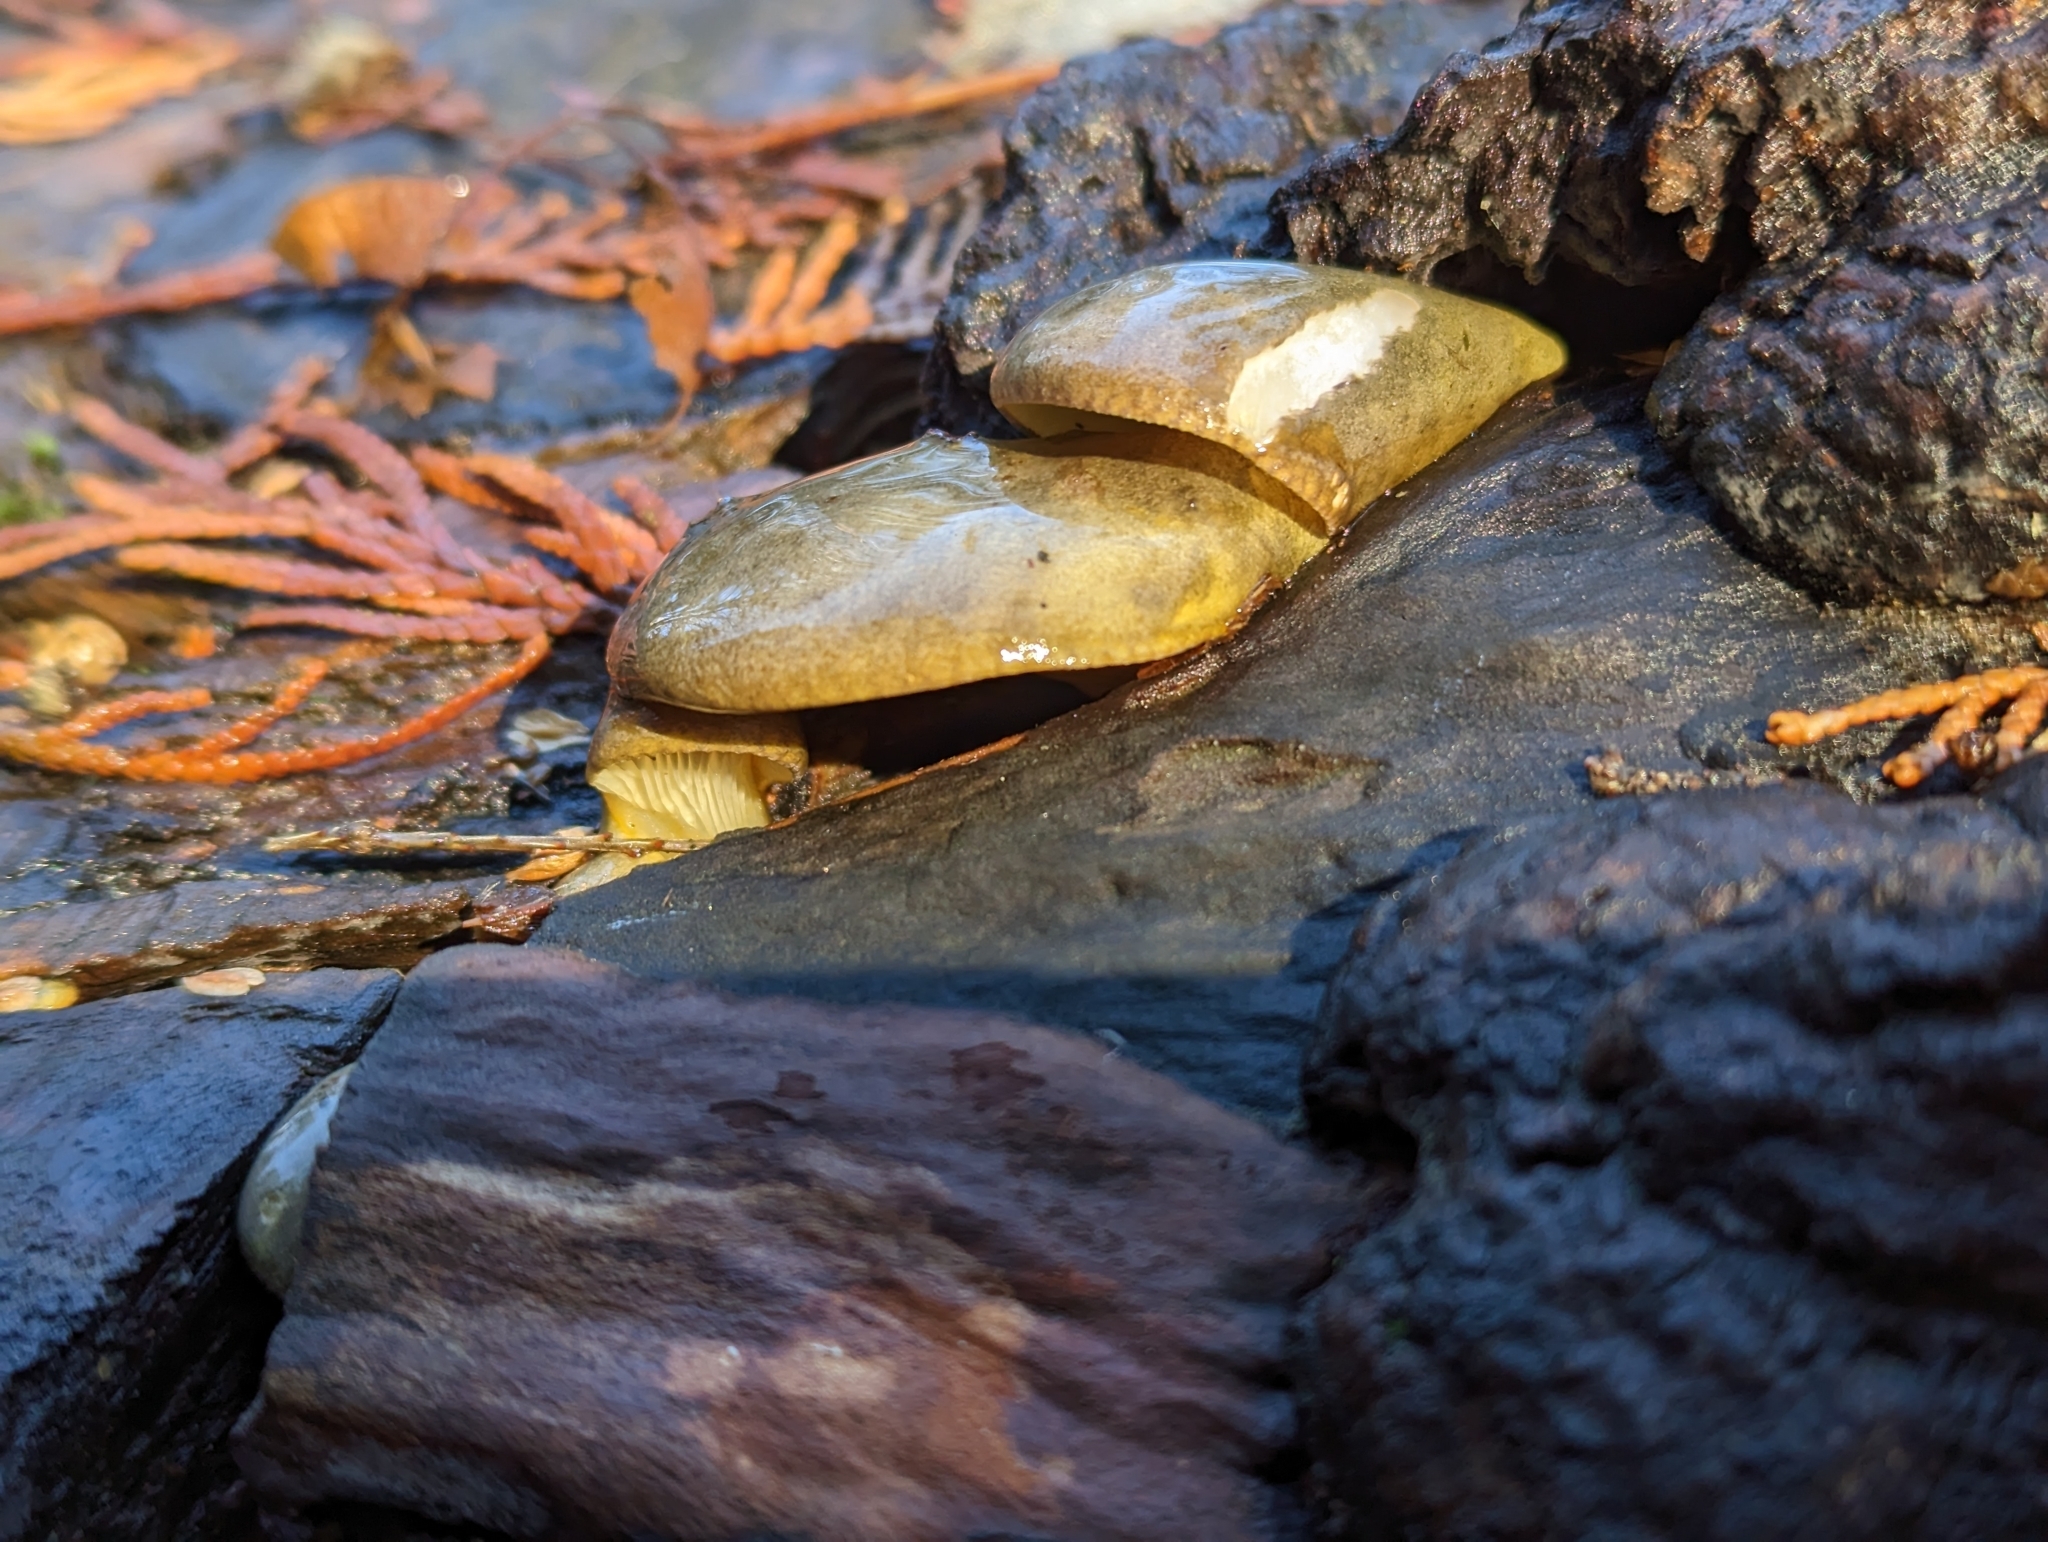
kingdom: Fungi
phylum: Basidiomycota
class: Agaricomycetes
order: Agaricales
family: Sarcomyxaceae
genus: Sarcomyxa
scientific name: Sarcomyxa serotina
